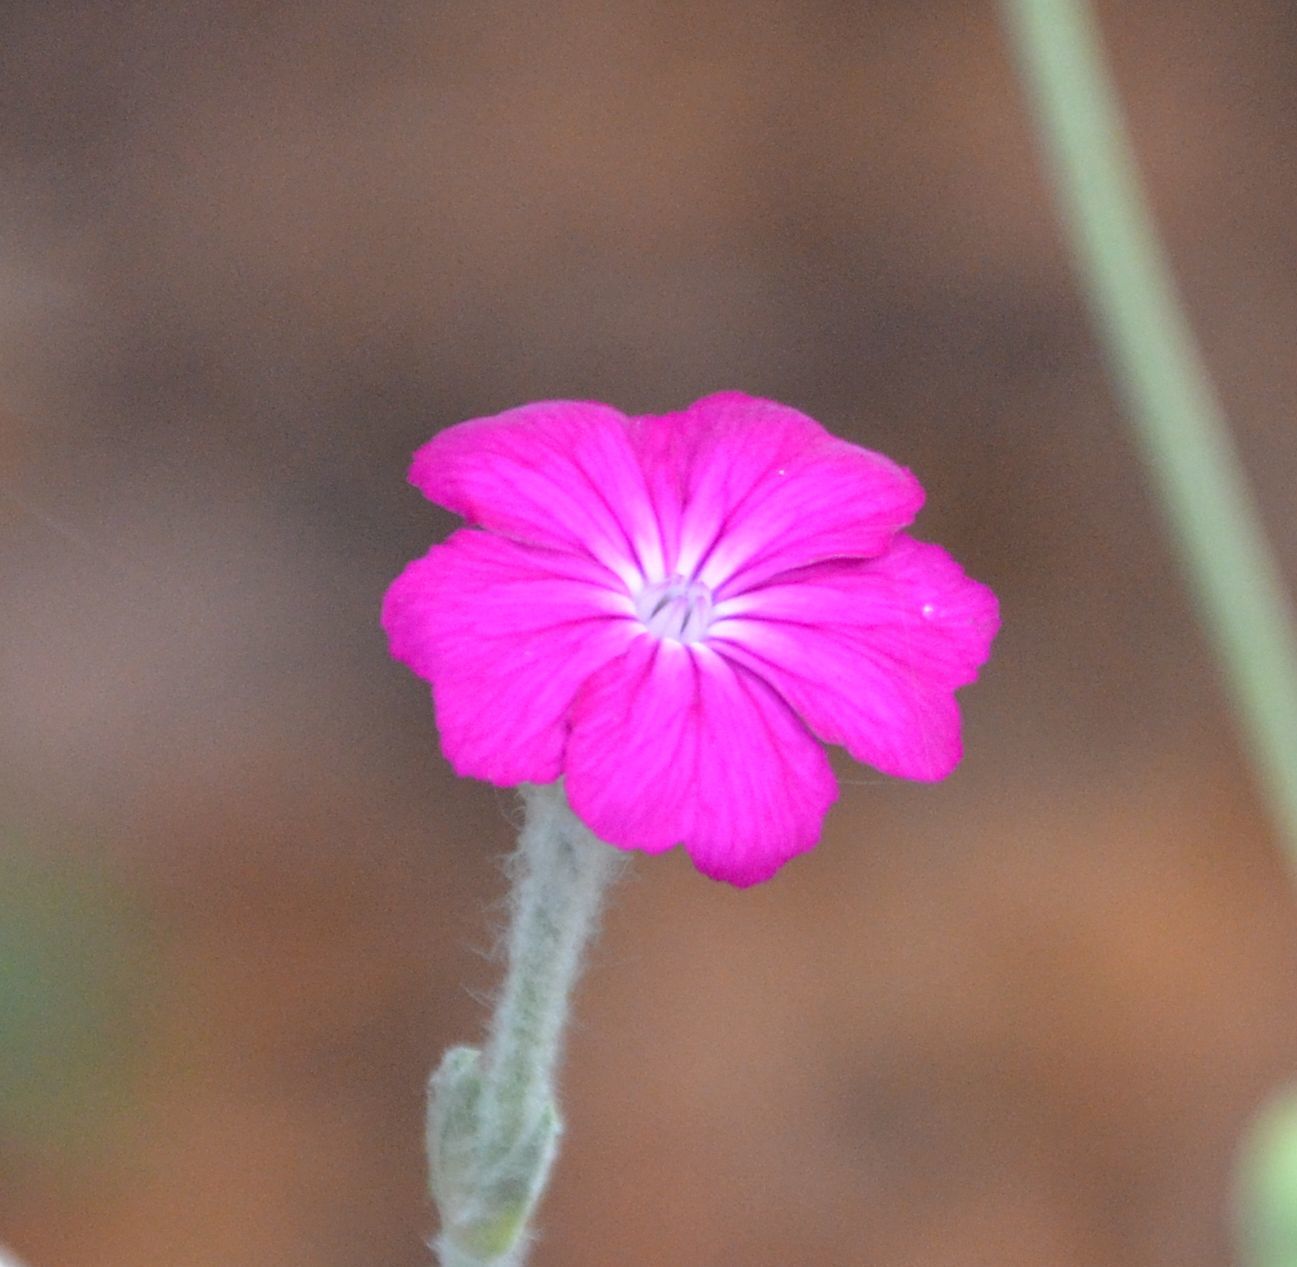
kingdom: Plantae
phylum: Tracheophyta
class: Magnoliopsida
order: Caryophyllales
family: Caryophyllaceae
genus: Silene
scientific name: Silene coronaria
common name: Rose campion
